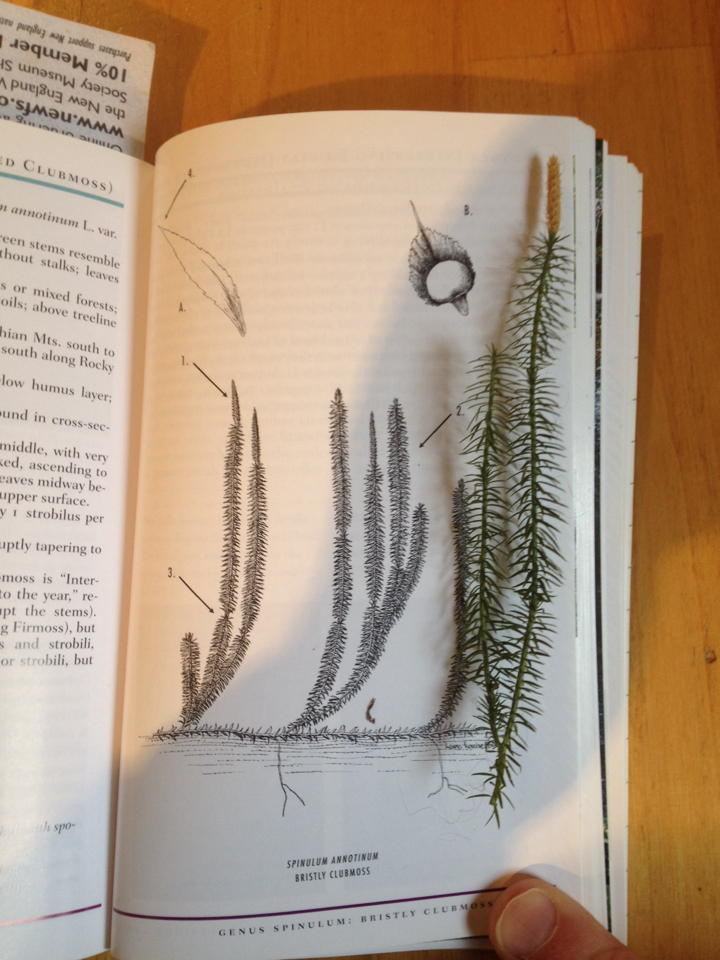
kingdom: Plantae
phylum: Tracheophyta
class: Lycopodiopsida
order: Lycopodiales
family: Lycopodiaceae
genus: Spinulum
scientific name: Spinulum annotinum
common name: Interrupted club-moss
